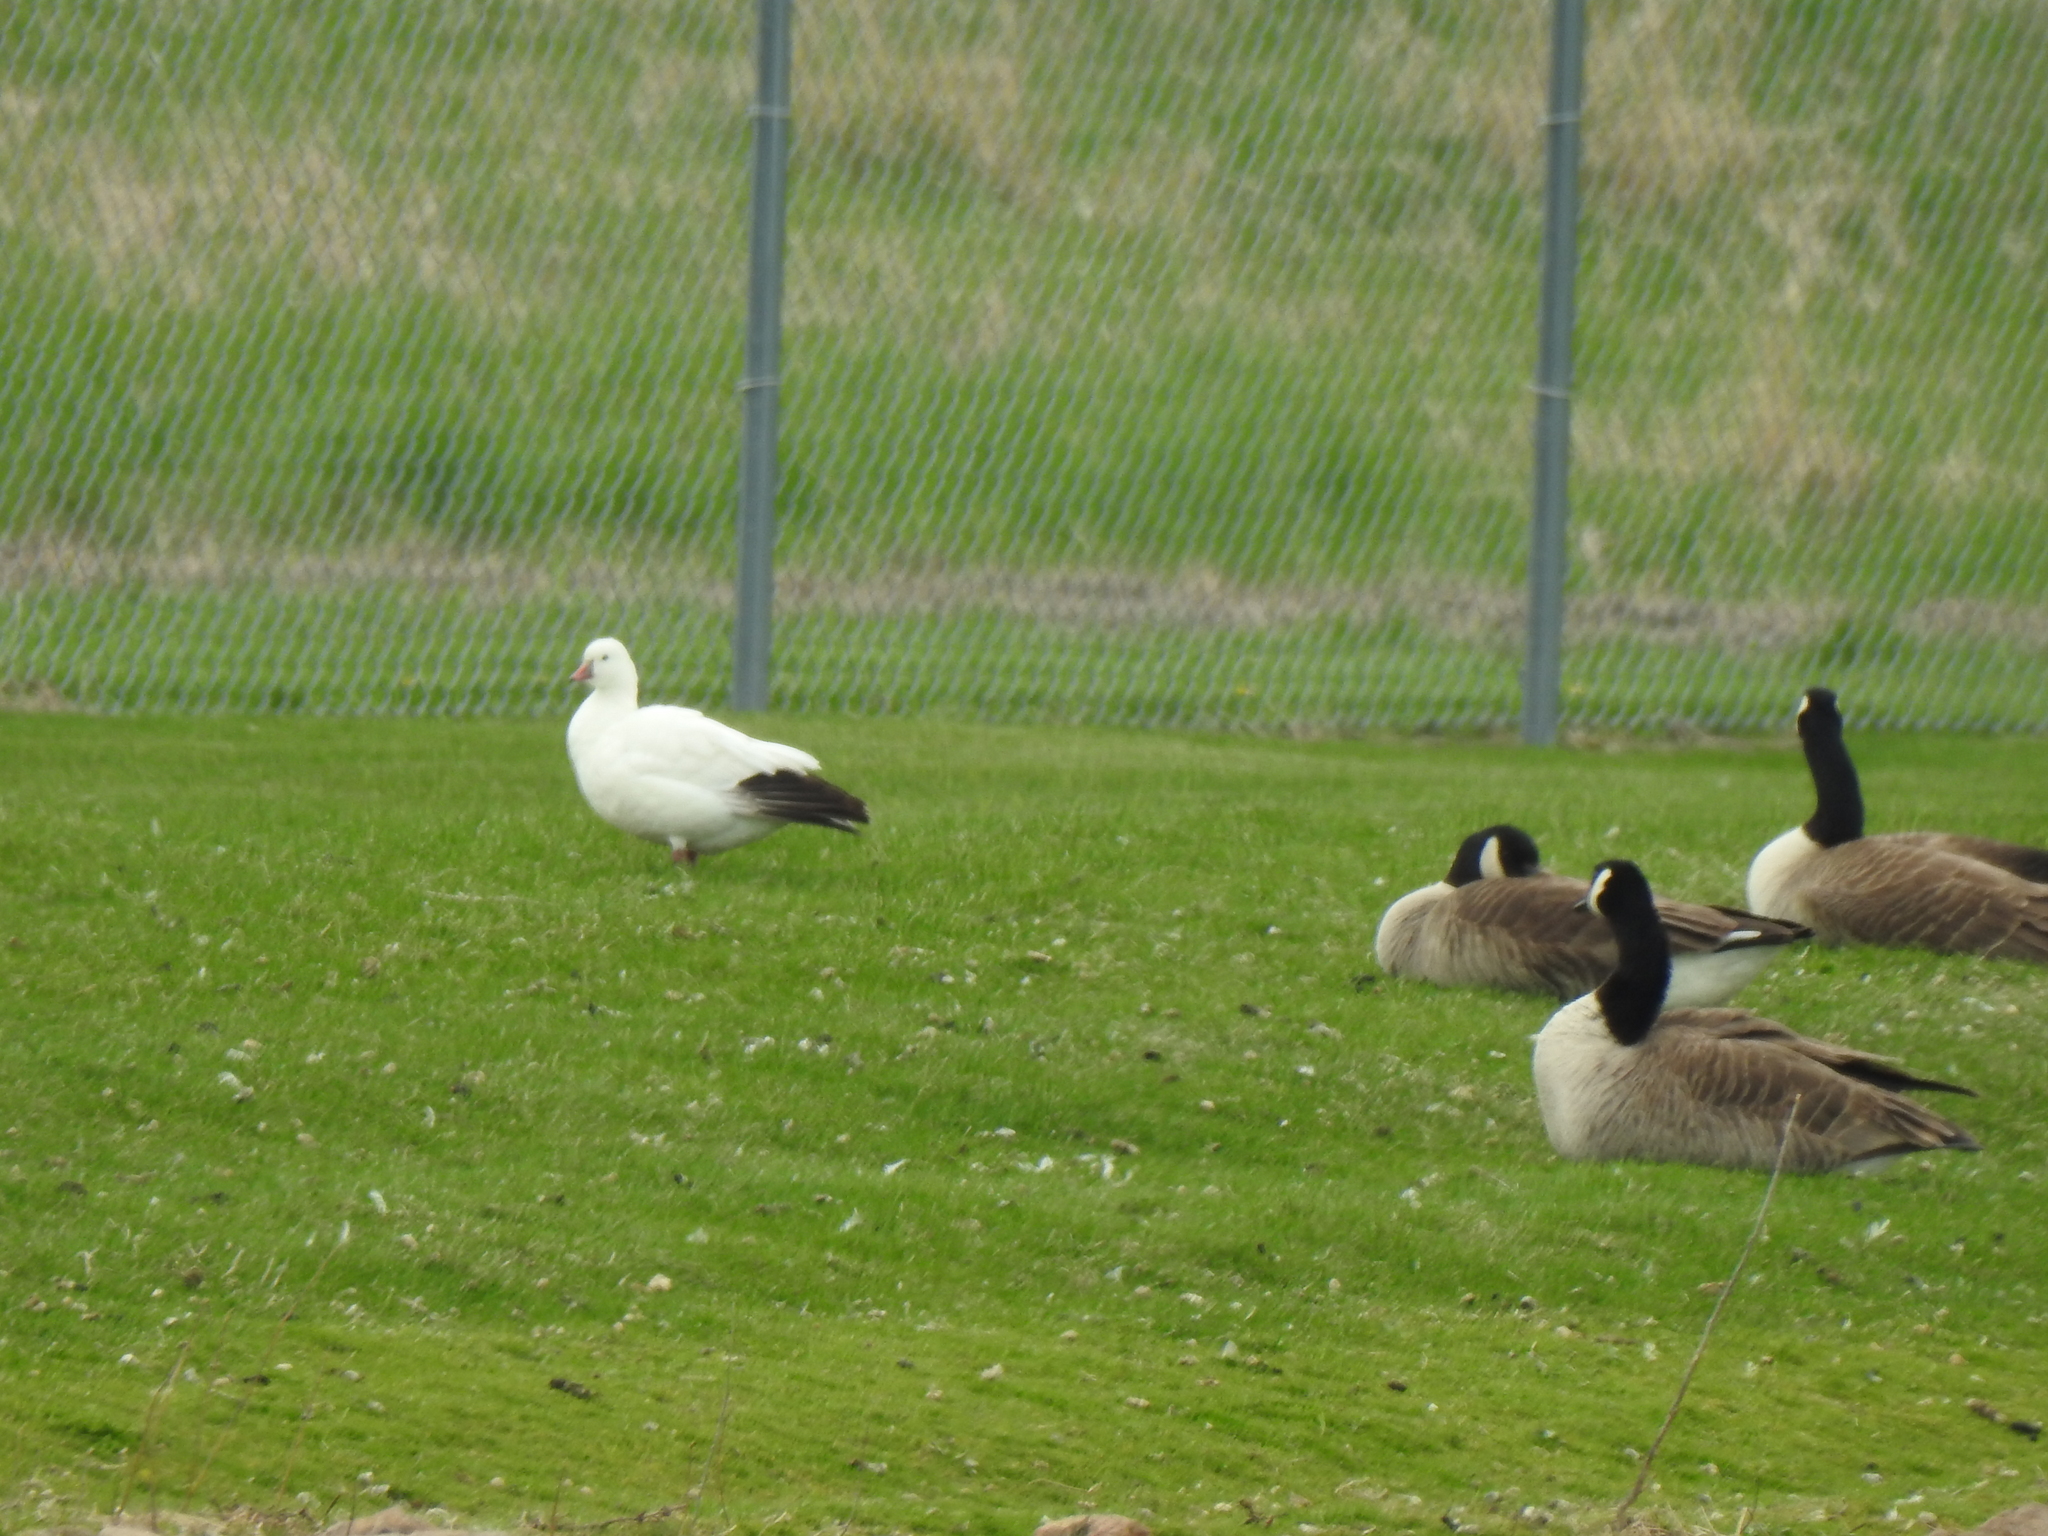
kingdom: Animalia
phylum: Chordata
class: Aves
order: Anseriformes
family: Anatidae
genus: Anser
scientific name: Anser rossii
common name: Ross's goose
